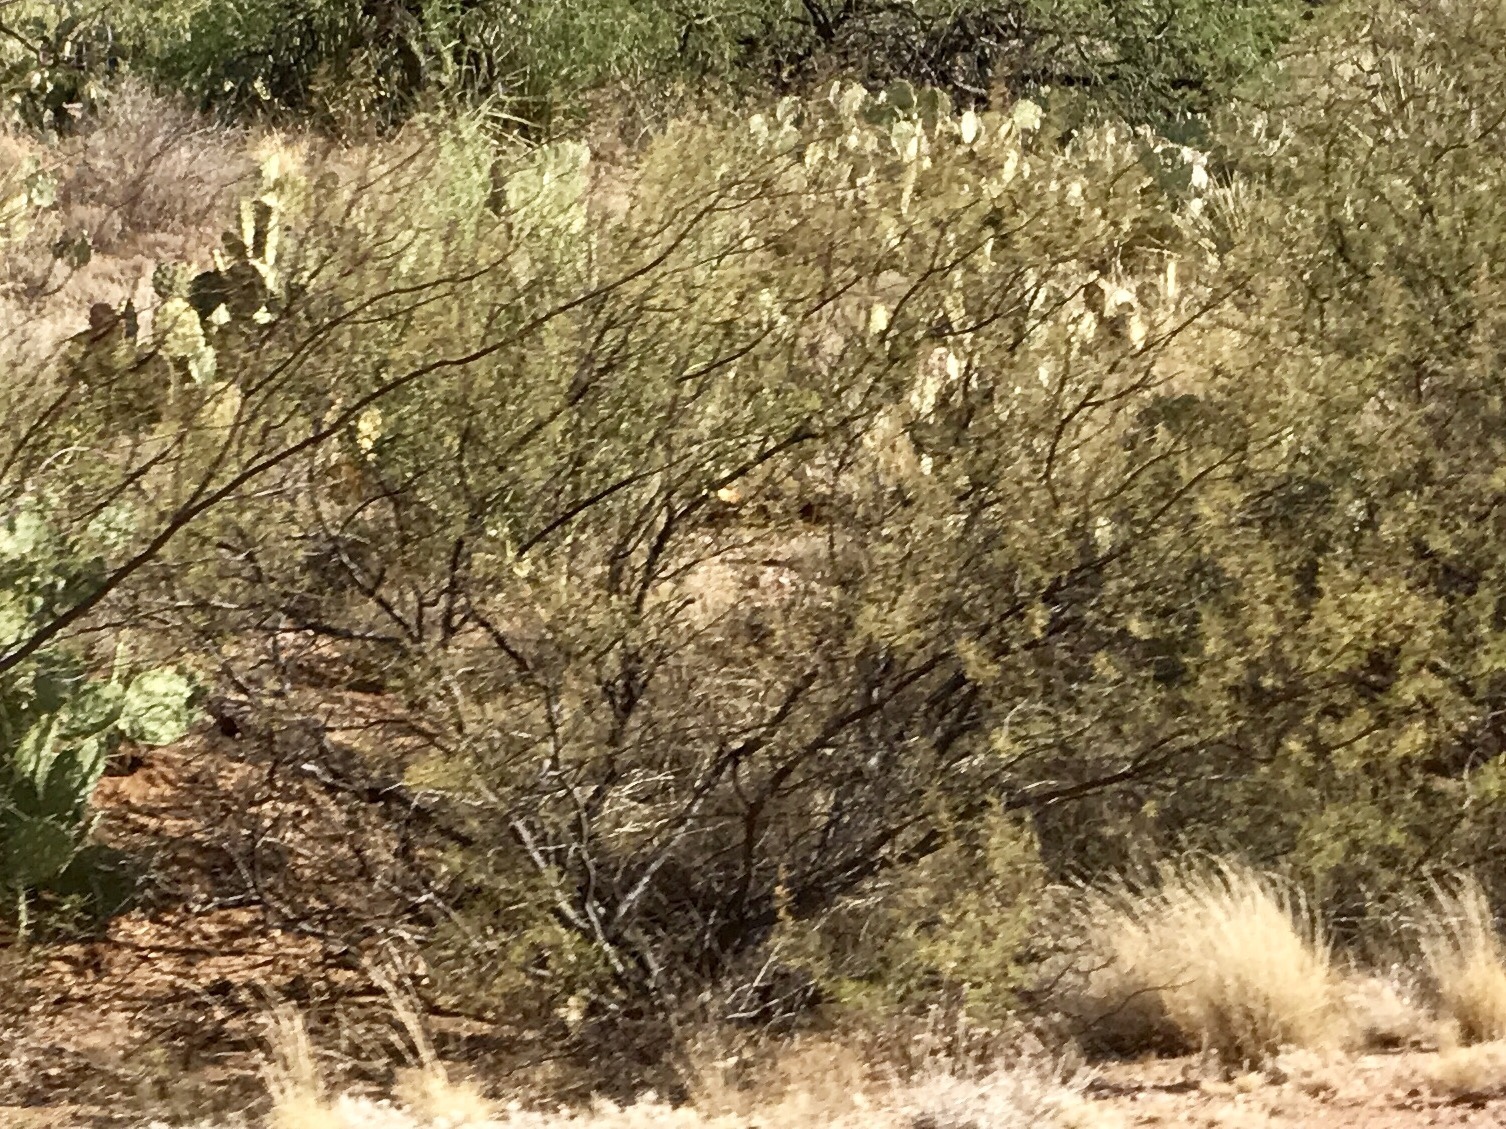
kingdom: Plantae
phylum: Tracheophyta
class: Magnoliopsida
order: Zygophyllales
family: Zygophyllaceae
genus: Larrea
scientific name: Larrea tridentata
